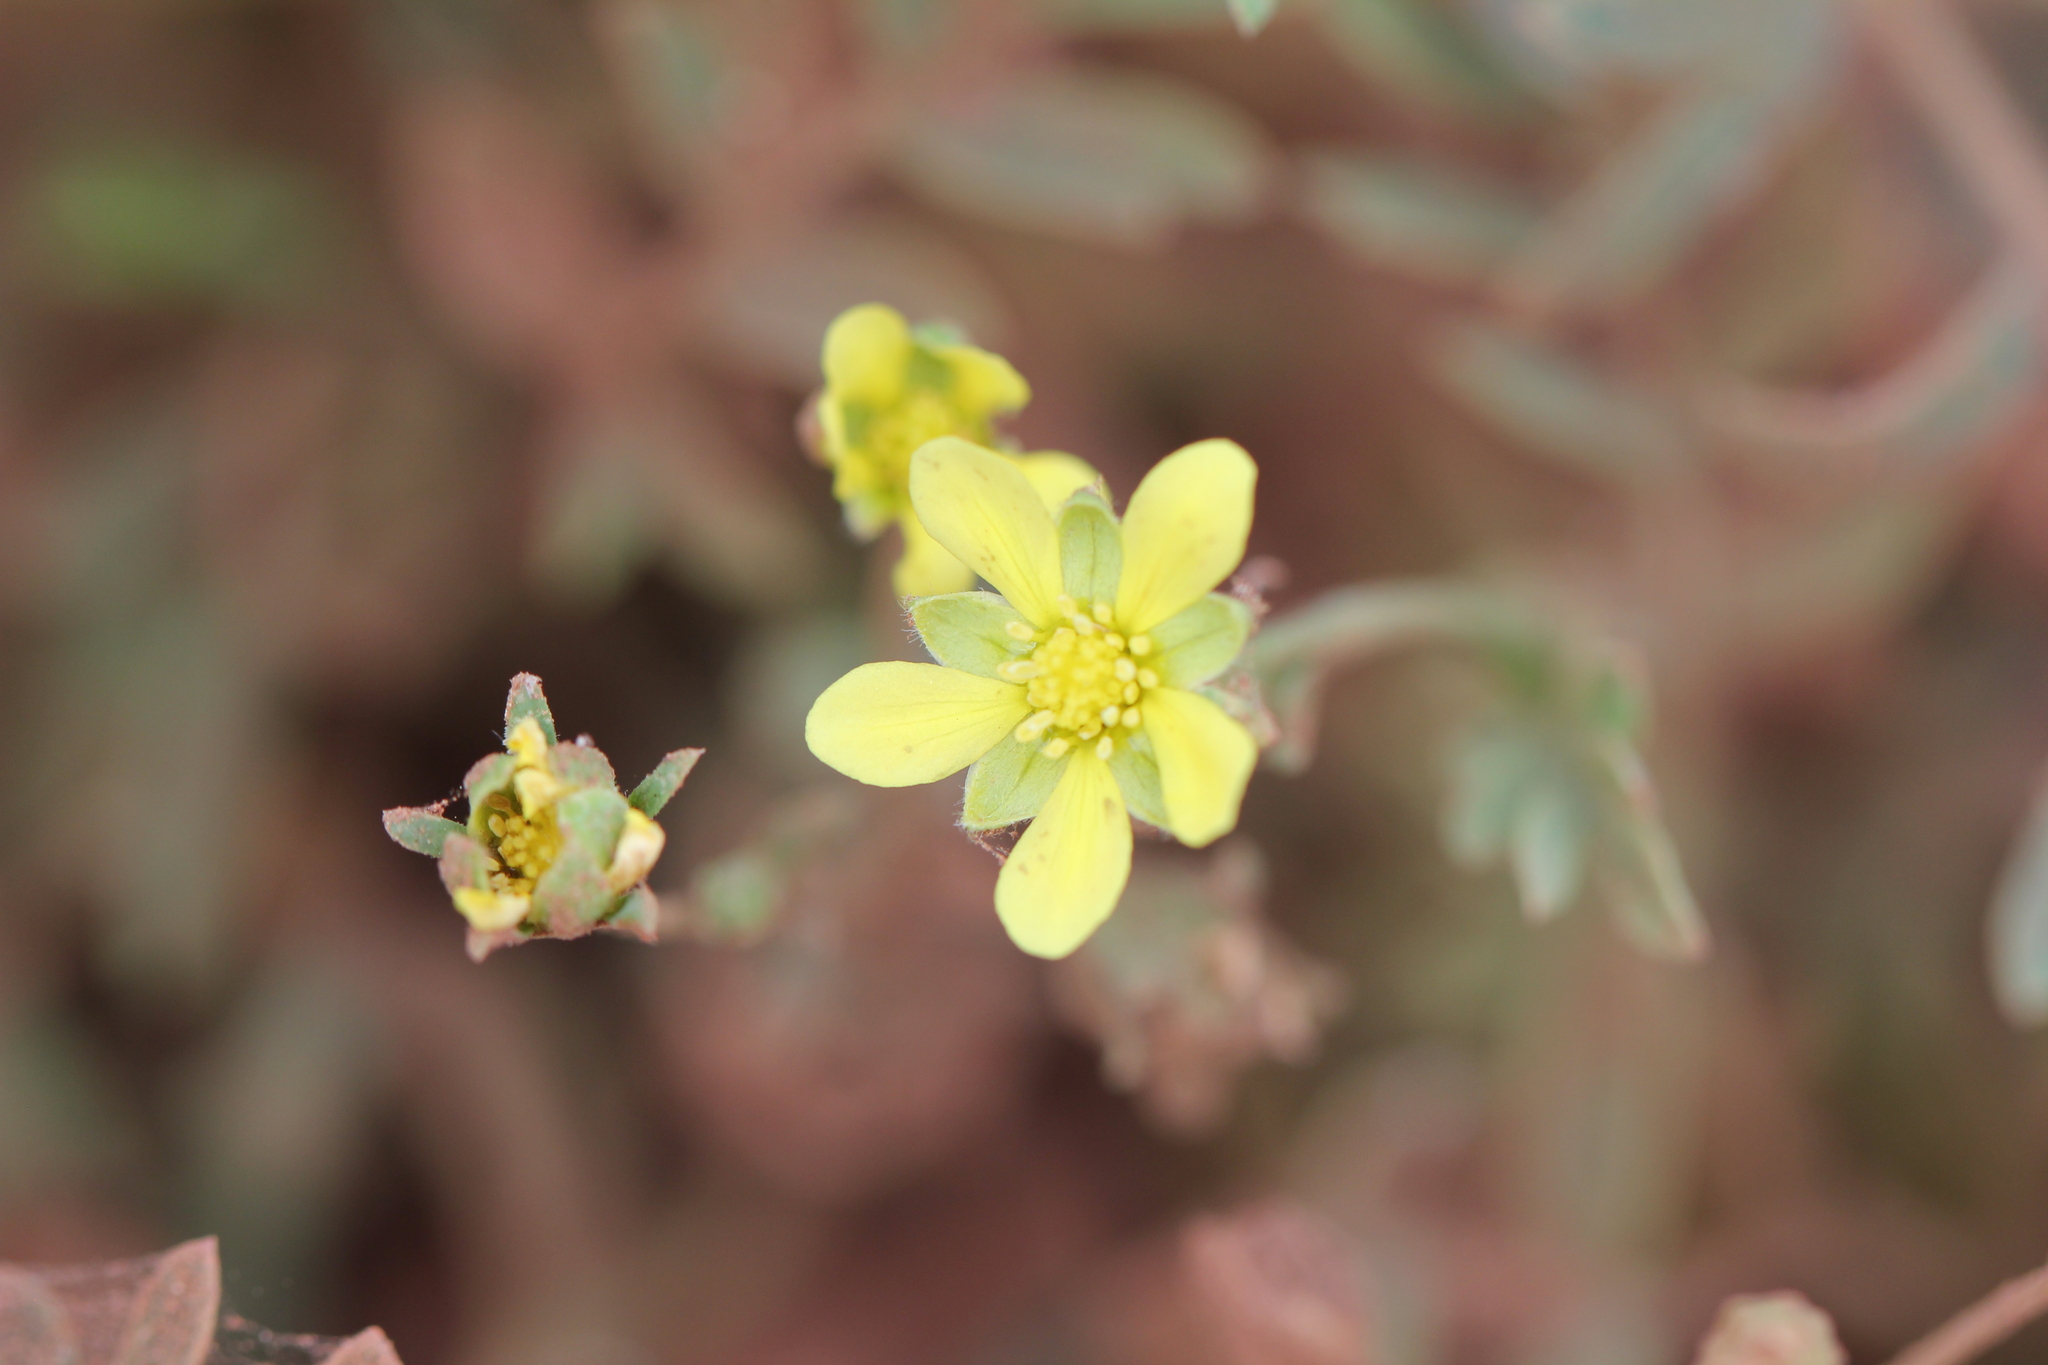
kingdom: Plantae
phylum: Tracheophyta
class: Magnoliopsida
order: Rosales
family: Rosaceae
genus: Sibbaldianthe
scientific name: Sibbaldianthe bifurca
